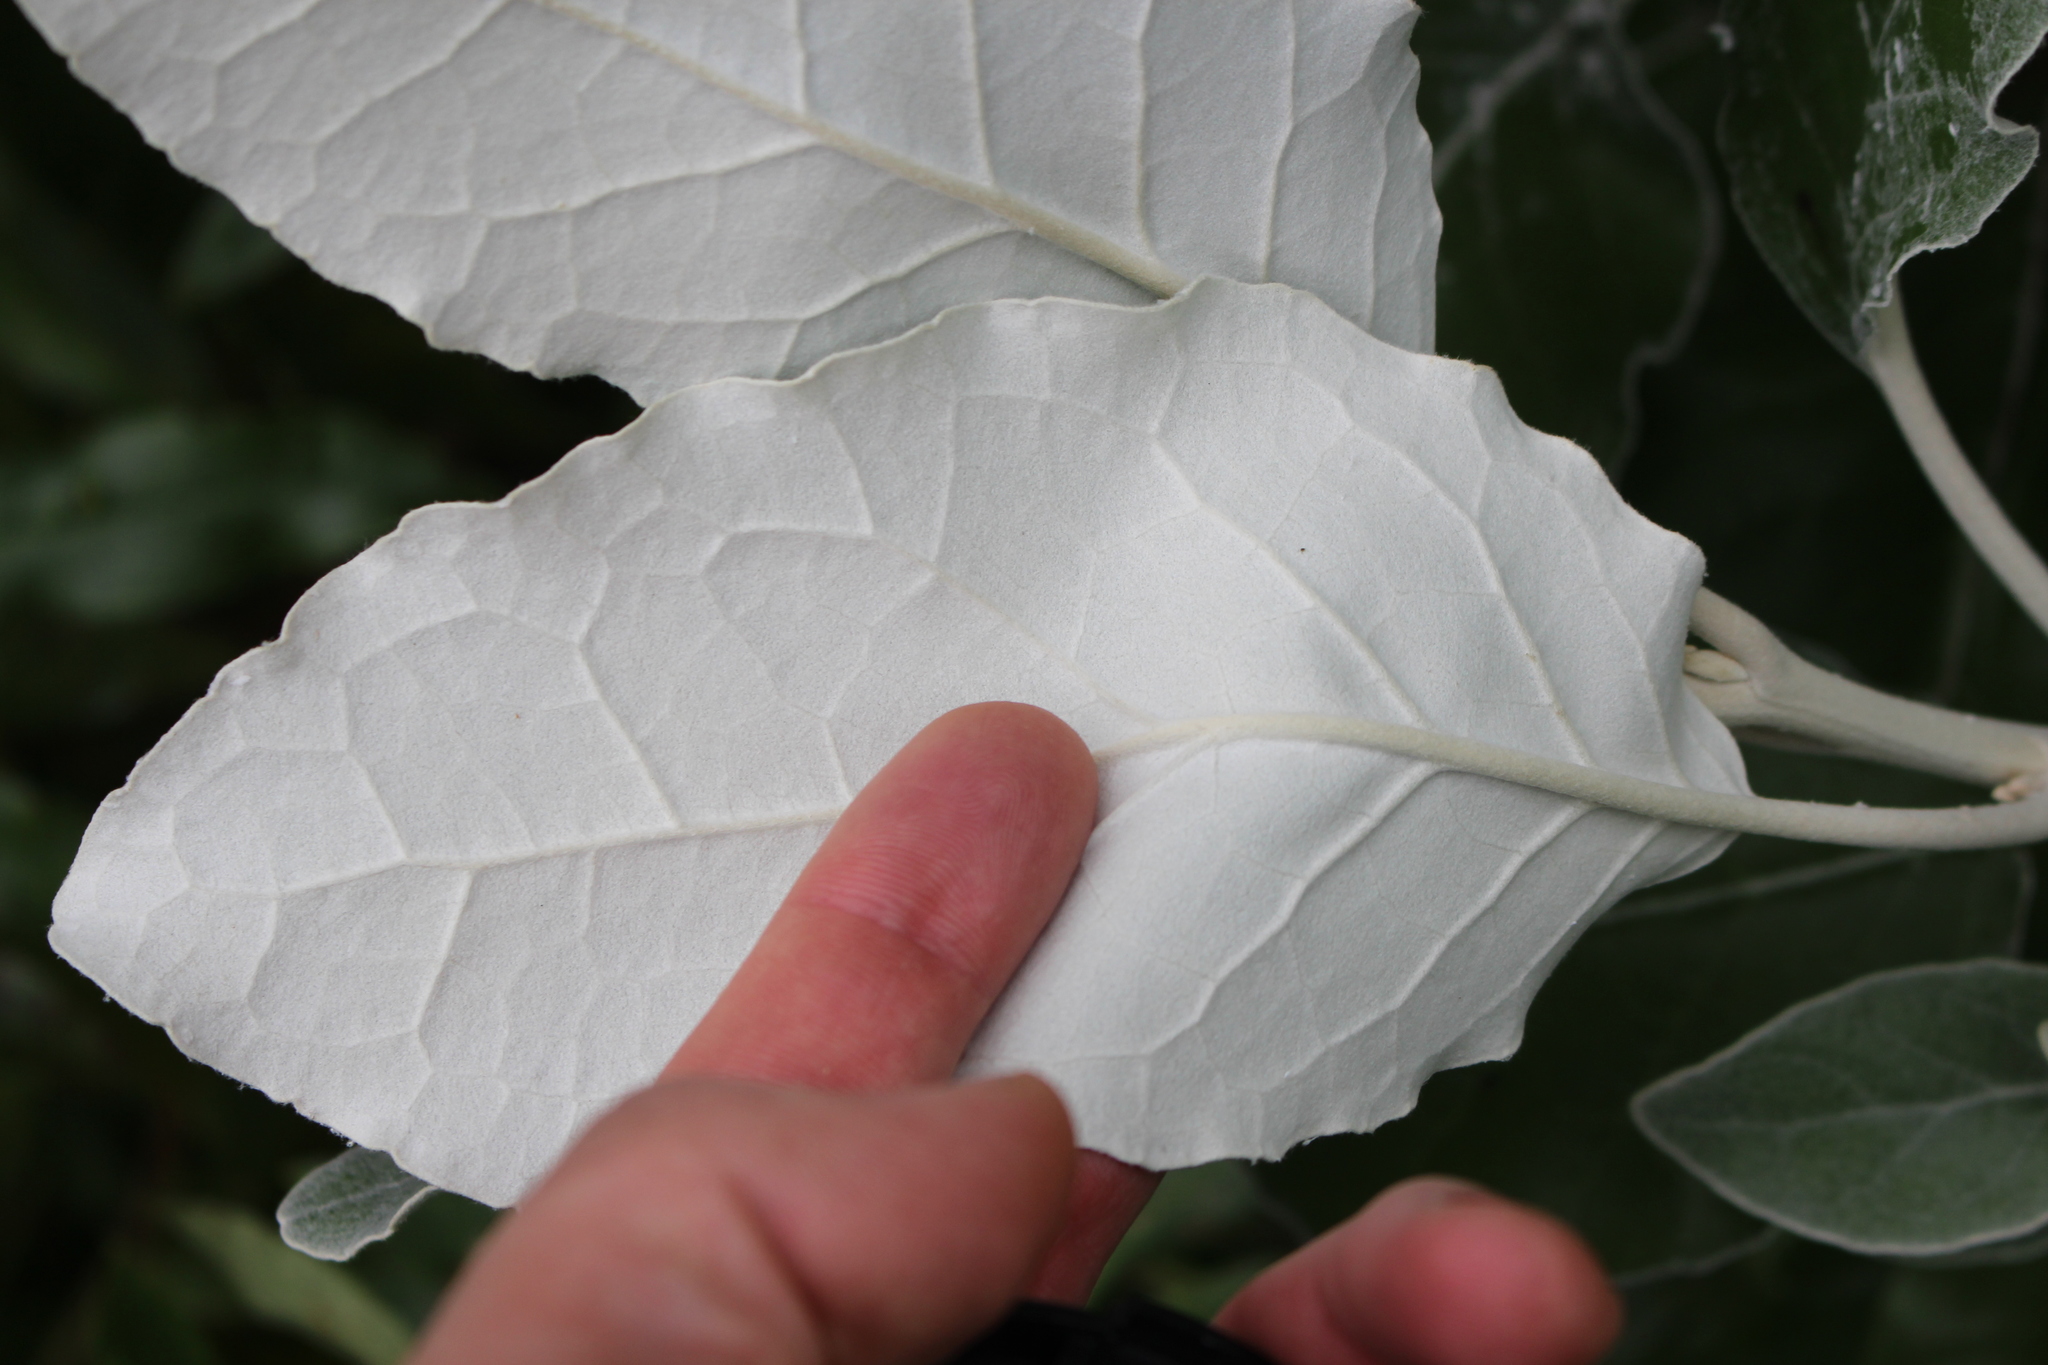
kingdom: Plantae
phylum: Tracheophyta
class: Magnoliopsida
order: Asterales
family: Asteraceae
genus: Brachyglottis
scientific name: Brachyglottis repanda
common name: Hedge ragwort
